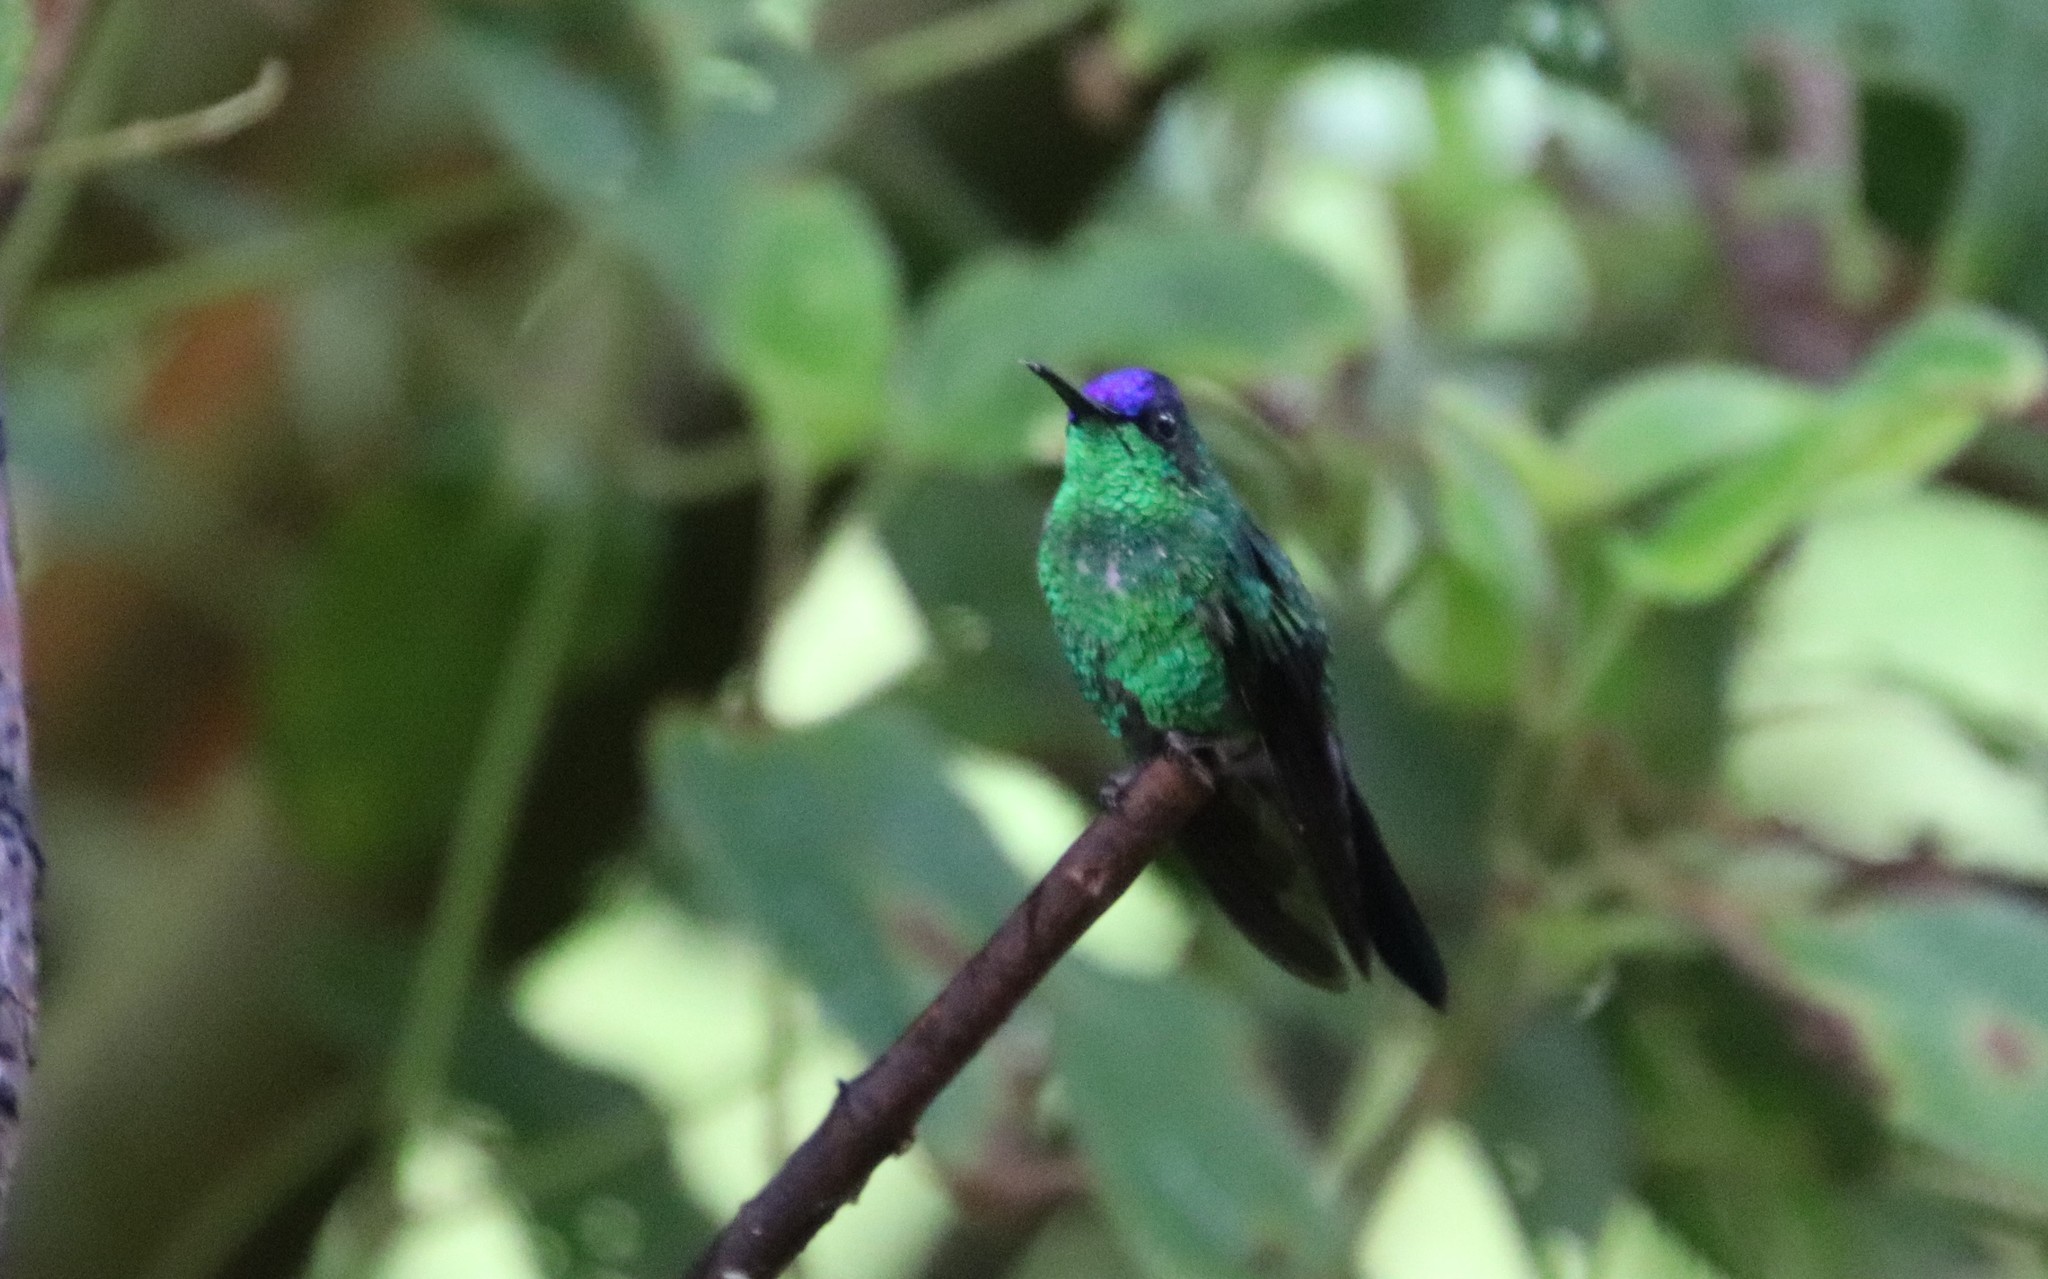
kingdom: Animalia
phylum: Chordata
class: Aves
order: Apodiformes
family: Trochilidae
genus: Thalurania
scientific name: Thalurania glaucopis
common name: Violet-capped woodnymph
